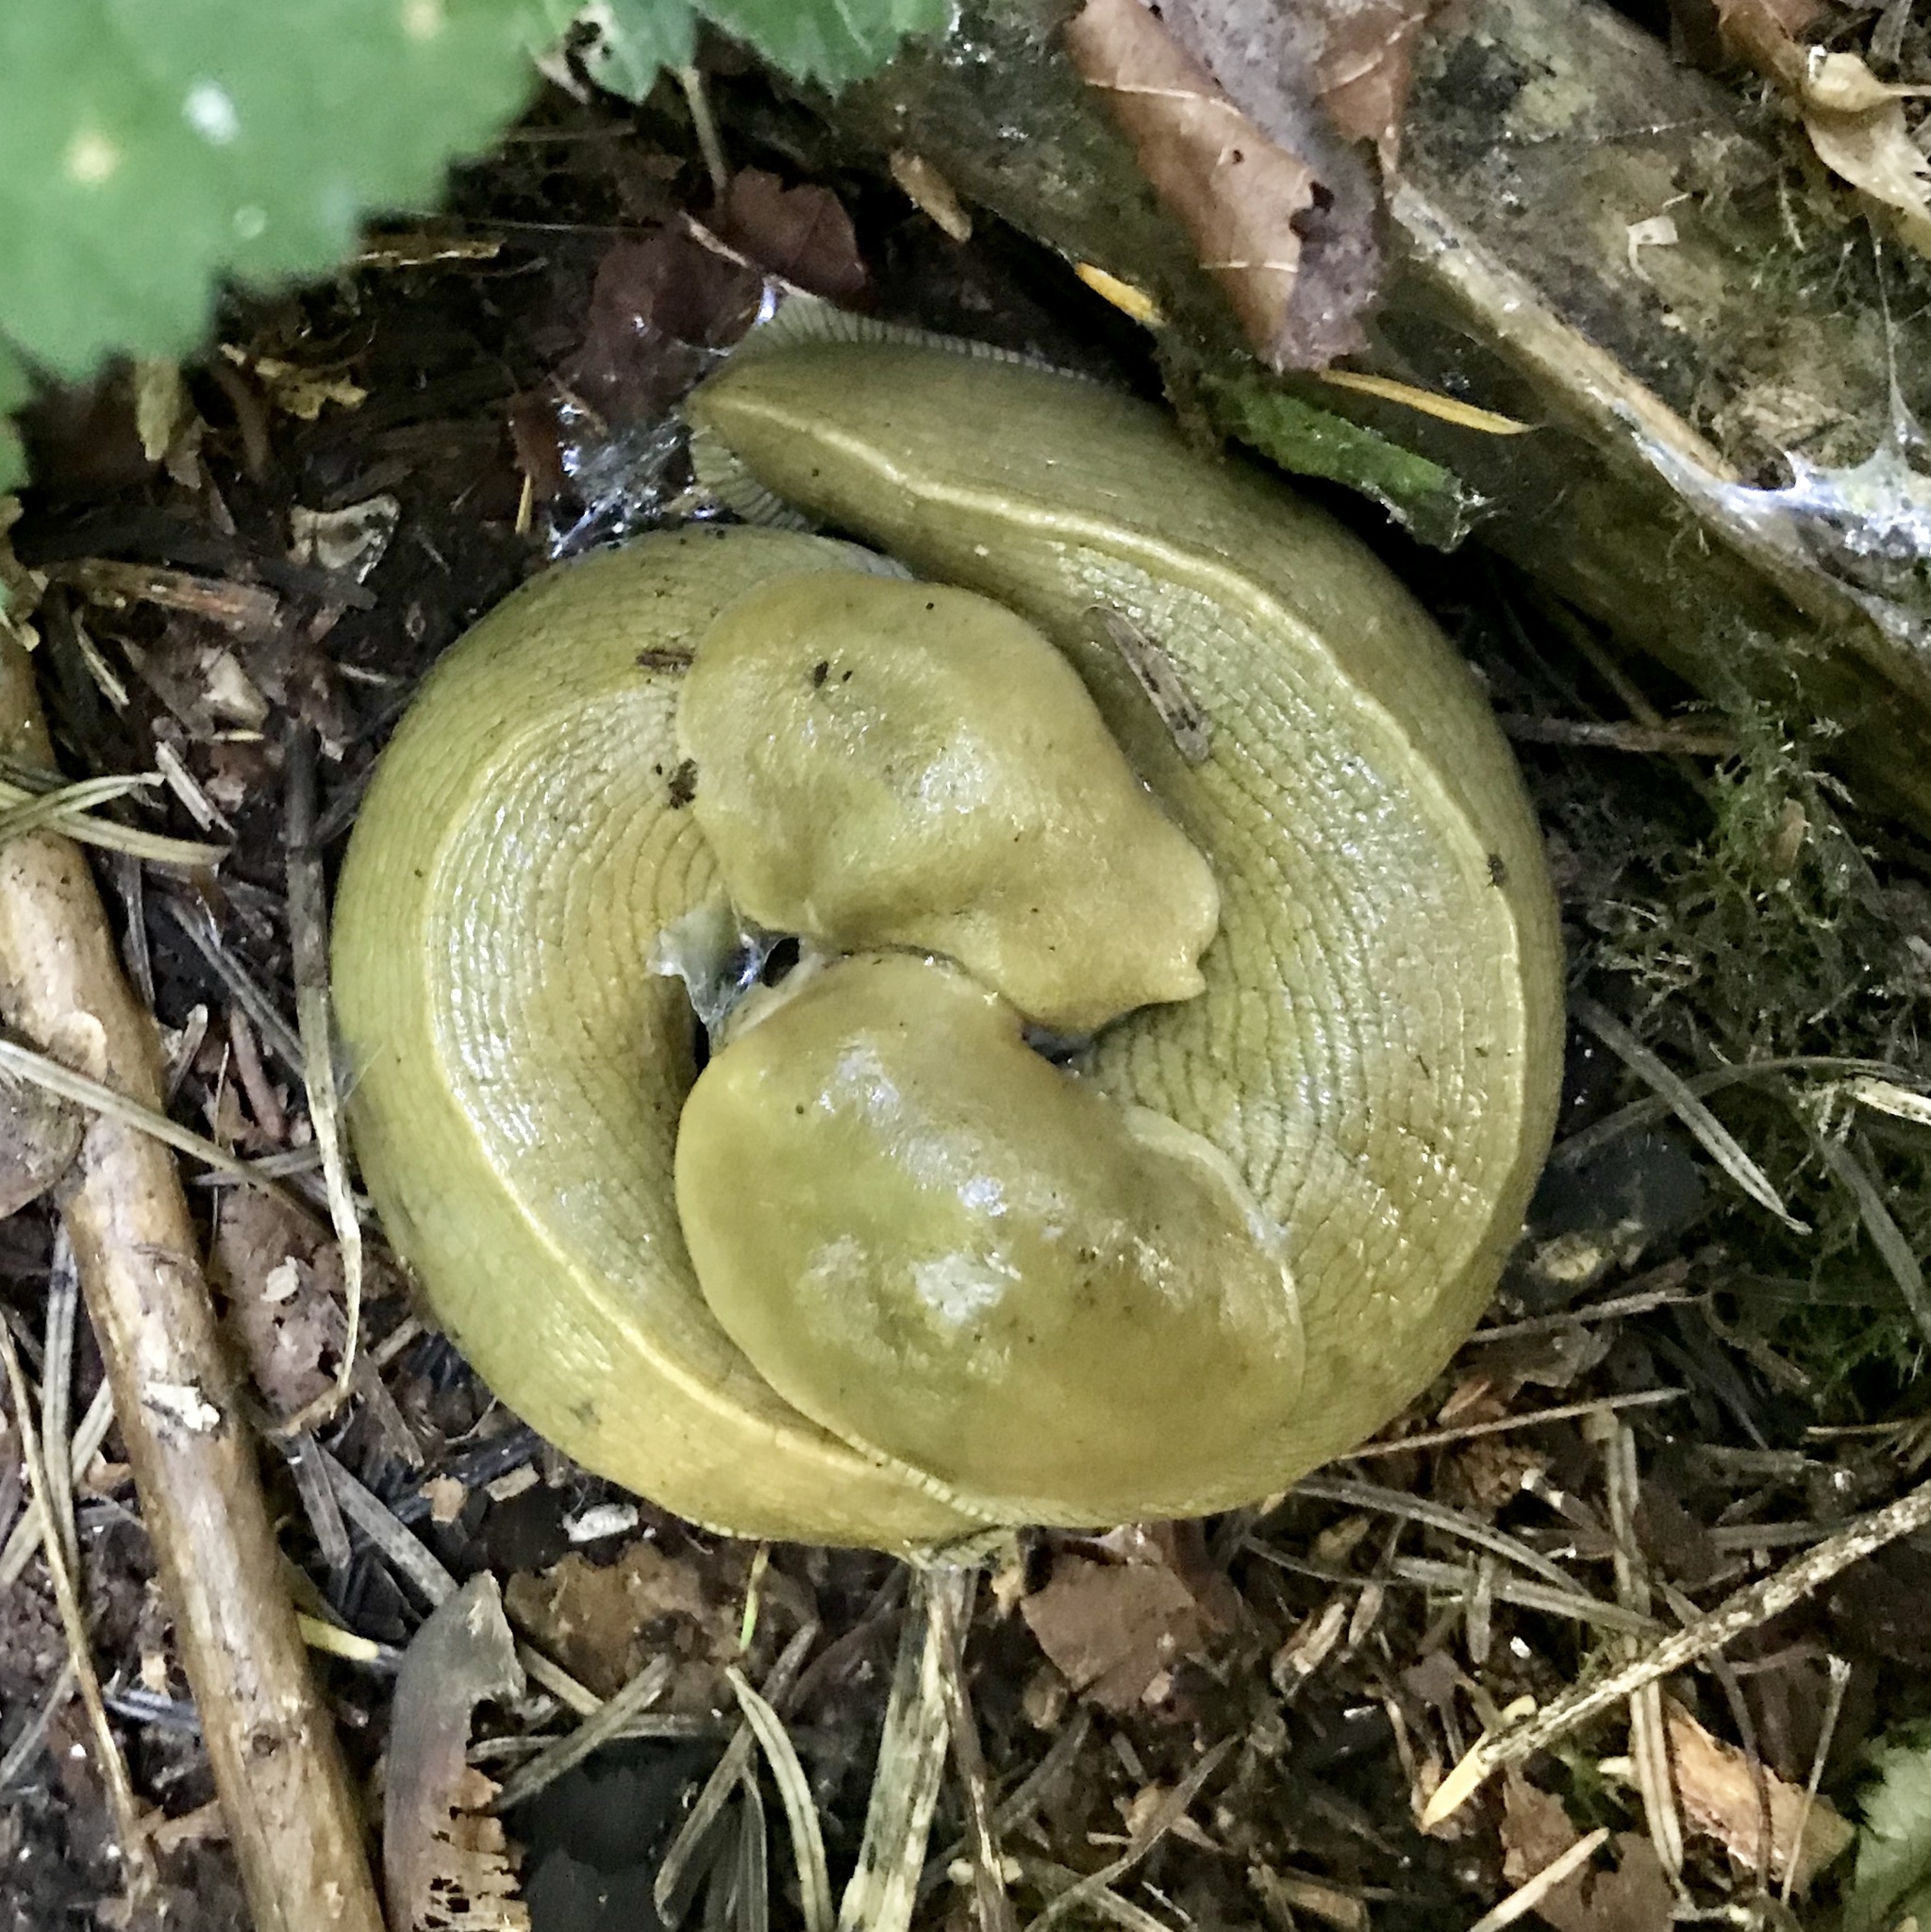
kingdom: Animalia
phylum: Mollusca
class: Gastropoda
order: Stylommatophora
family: Ariolimacidae
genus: Ariolimax
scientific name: Ariolimax columbianus
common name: Pacific banana slug
